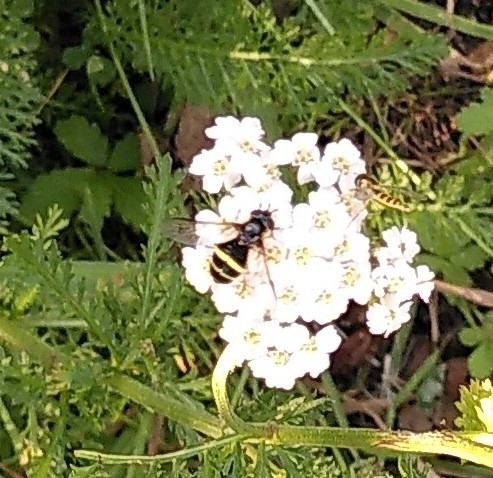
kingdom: Animalia
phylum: Arthropoda
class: Insecta
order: Diptera
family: Syrphidae
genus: Dasysyrphus
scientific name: Dasysyrphus tricinctus
